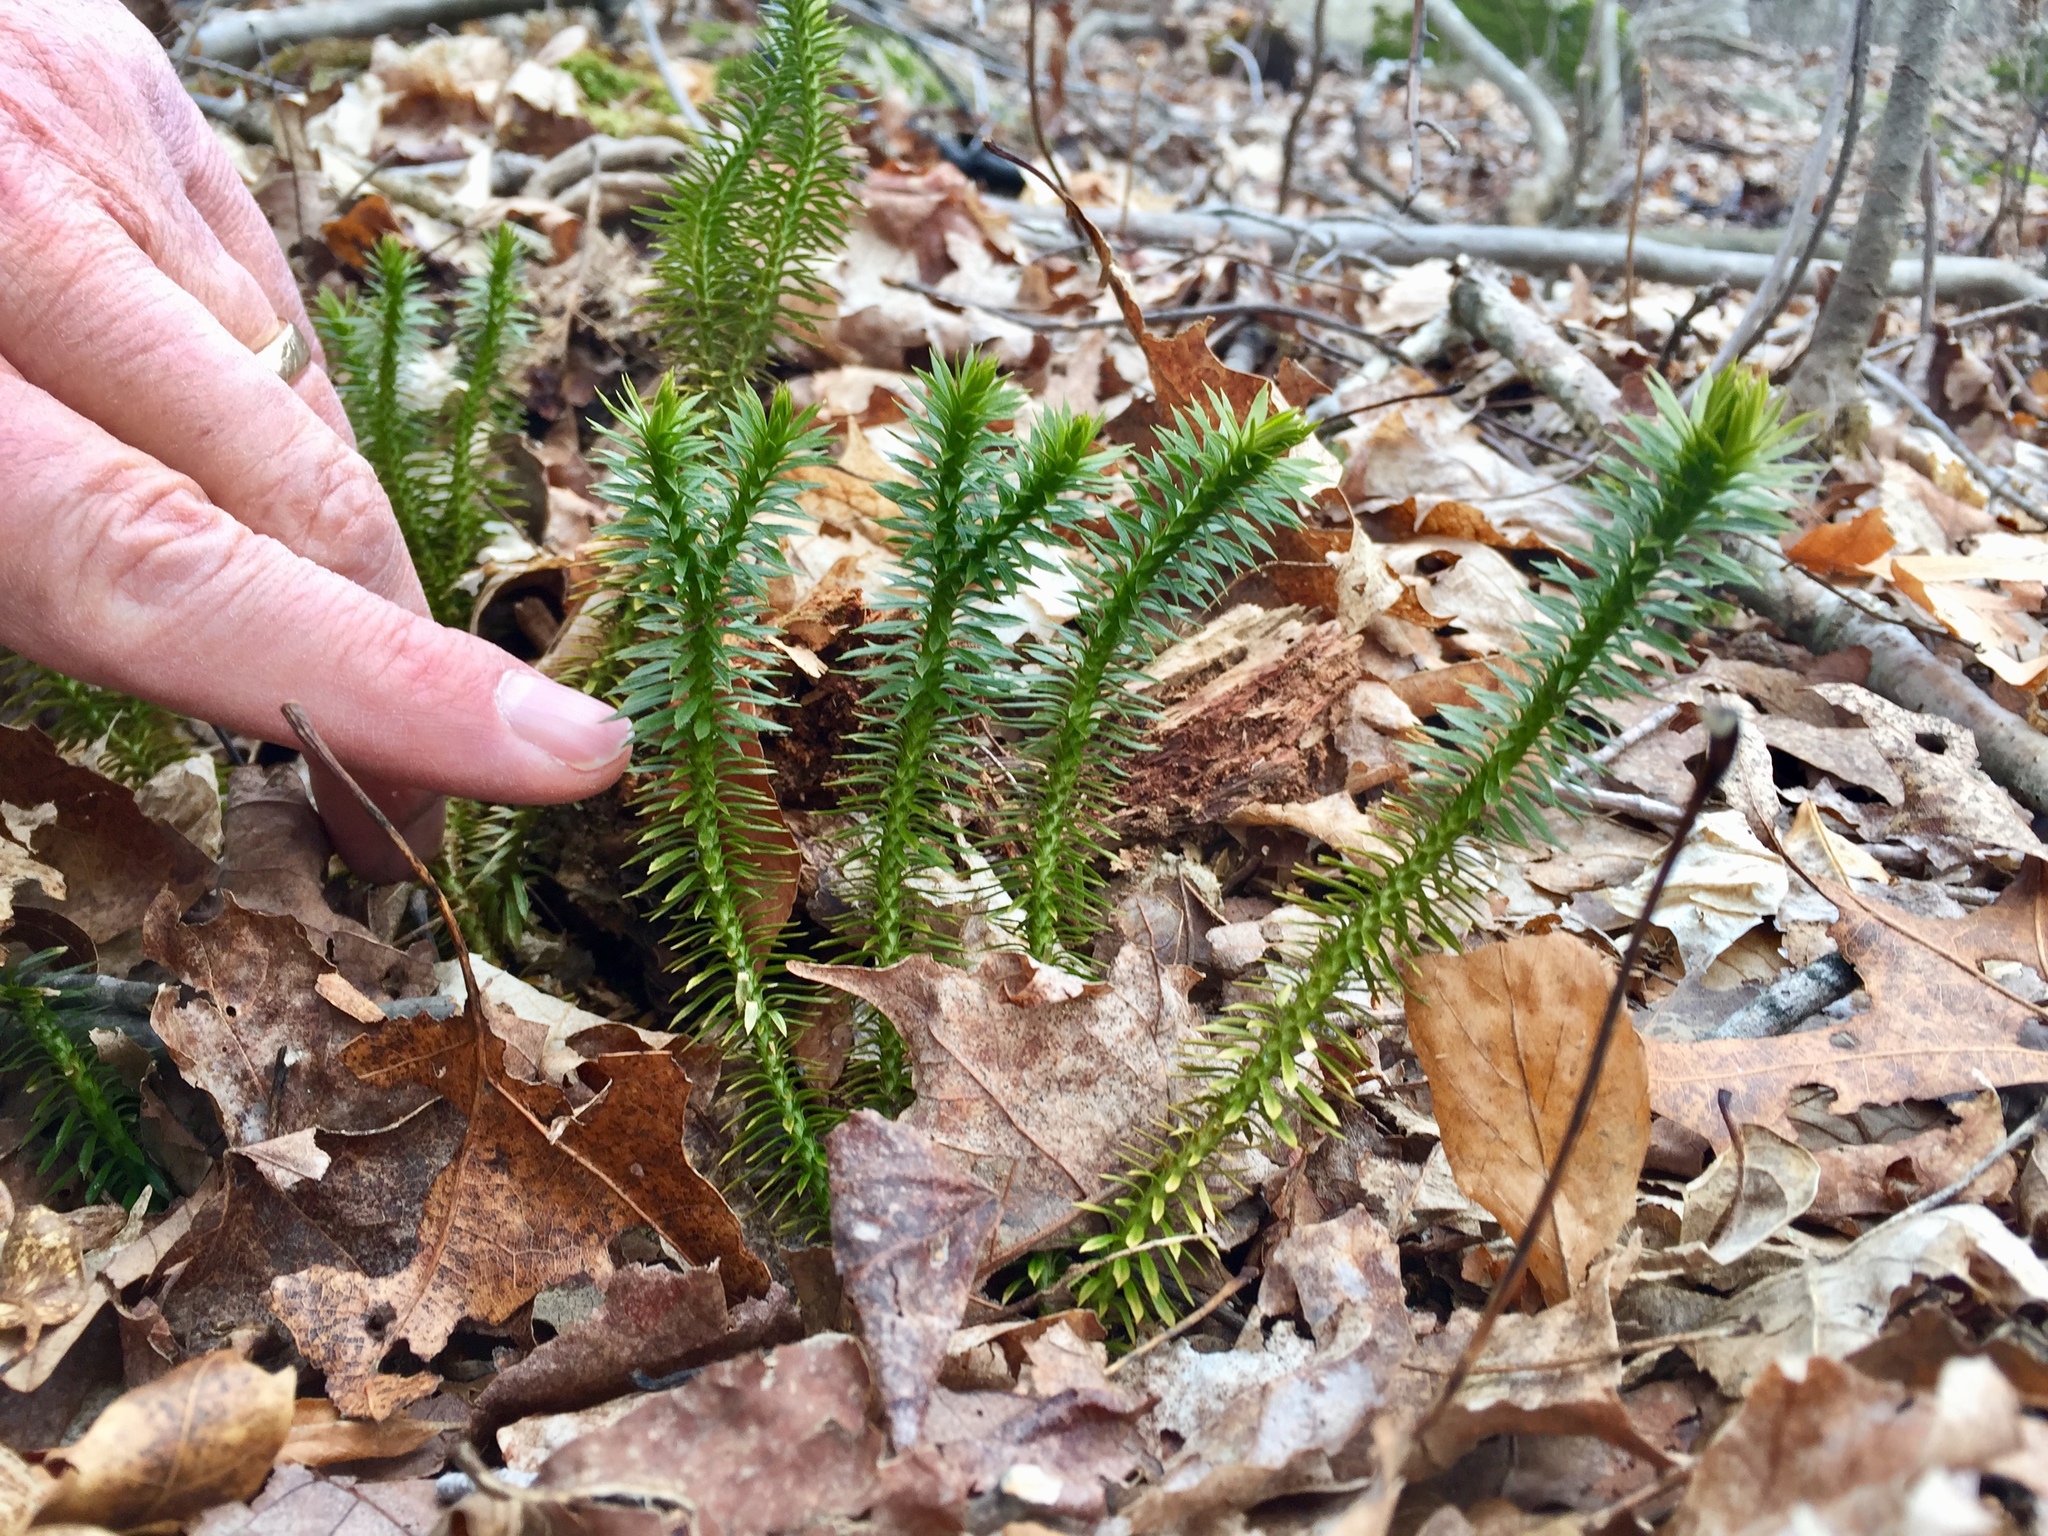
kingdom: Plantae
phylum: Tracheophyta
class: Lycopodiopsida
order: Lycopodiales
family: Lycopodiaceae
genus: Huperzia
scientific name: Huperzia lucidula
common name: Shining clubmoss
